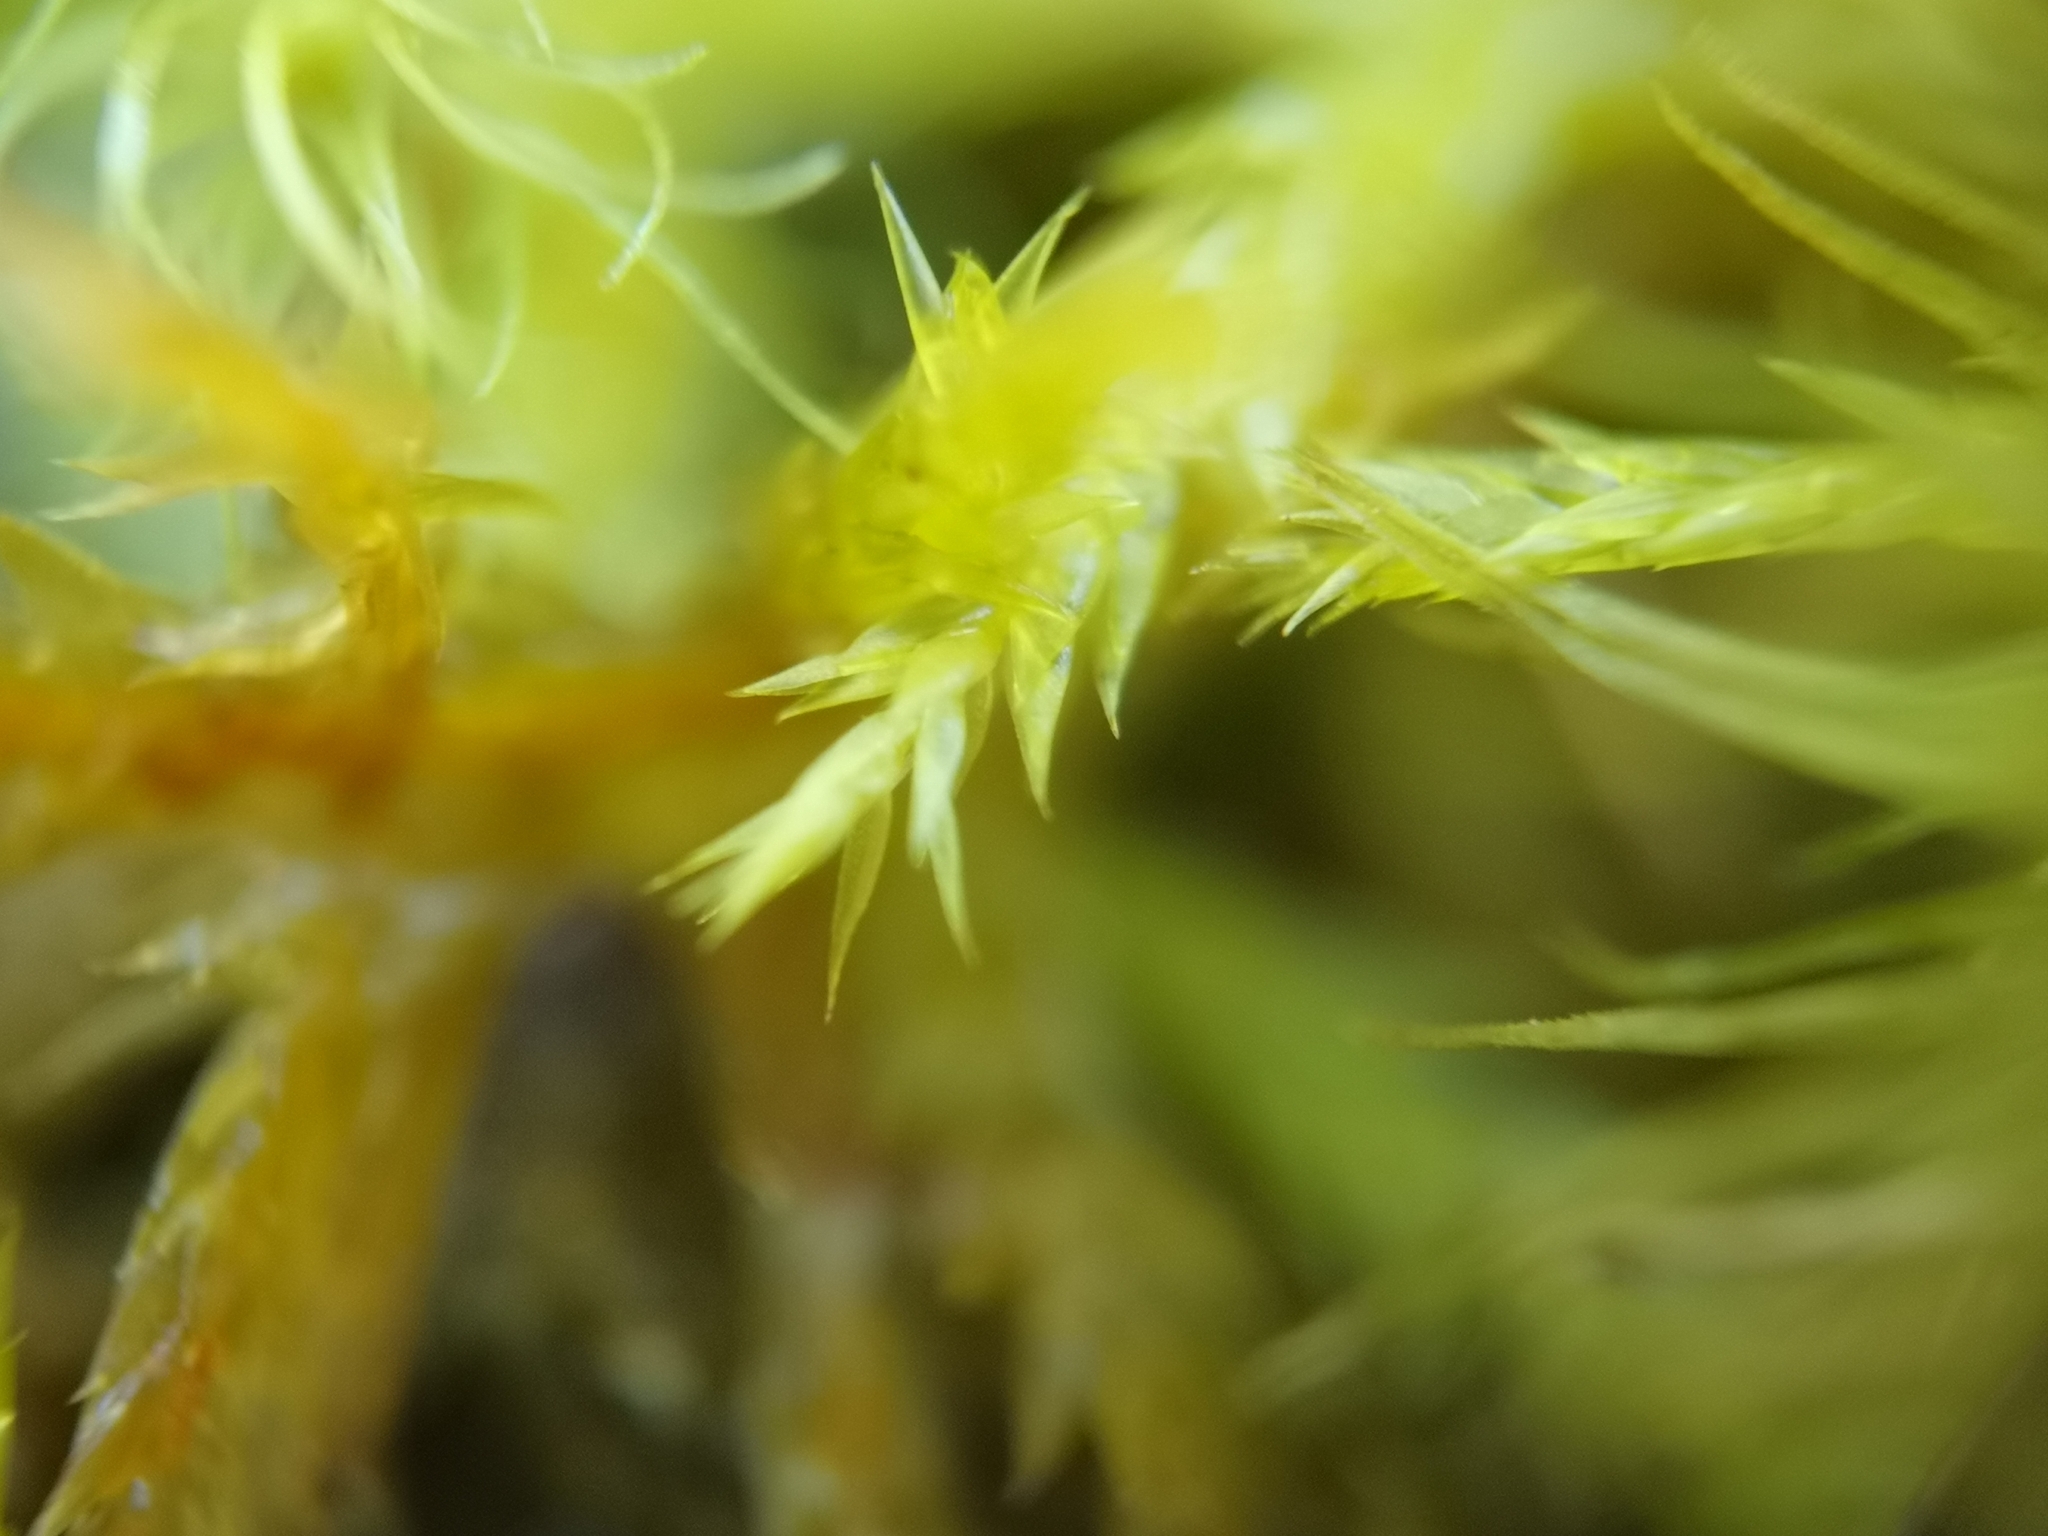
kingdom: Plantae
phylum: Bryophyta
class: Bryopsida
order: Hypnales
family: Callicladiaceae
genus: Callicladium
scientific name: Callicladium haldanianum
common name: Beautiful branch moss
